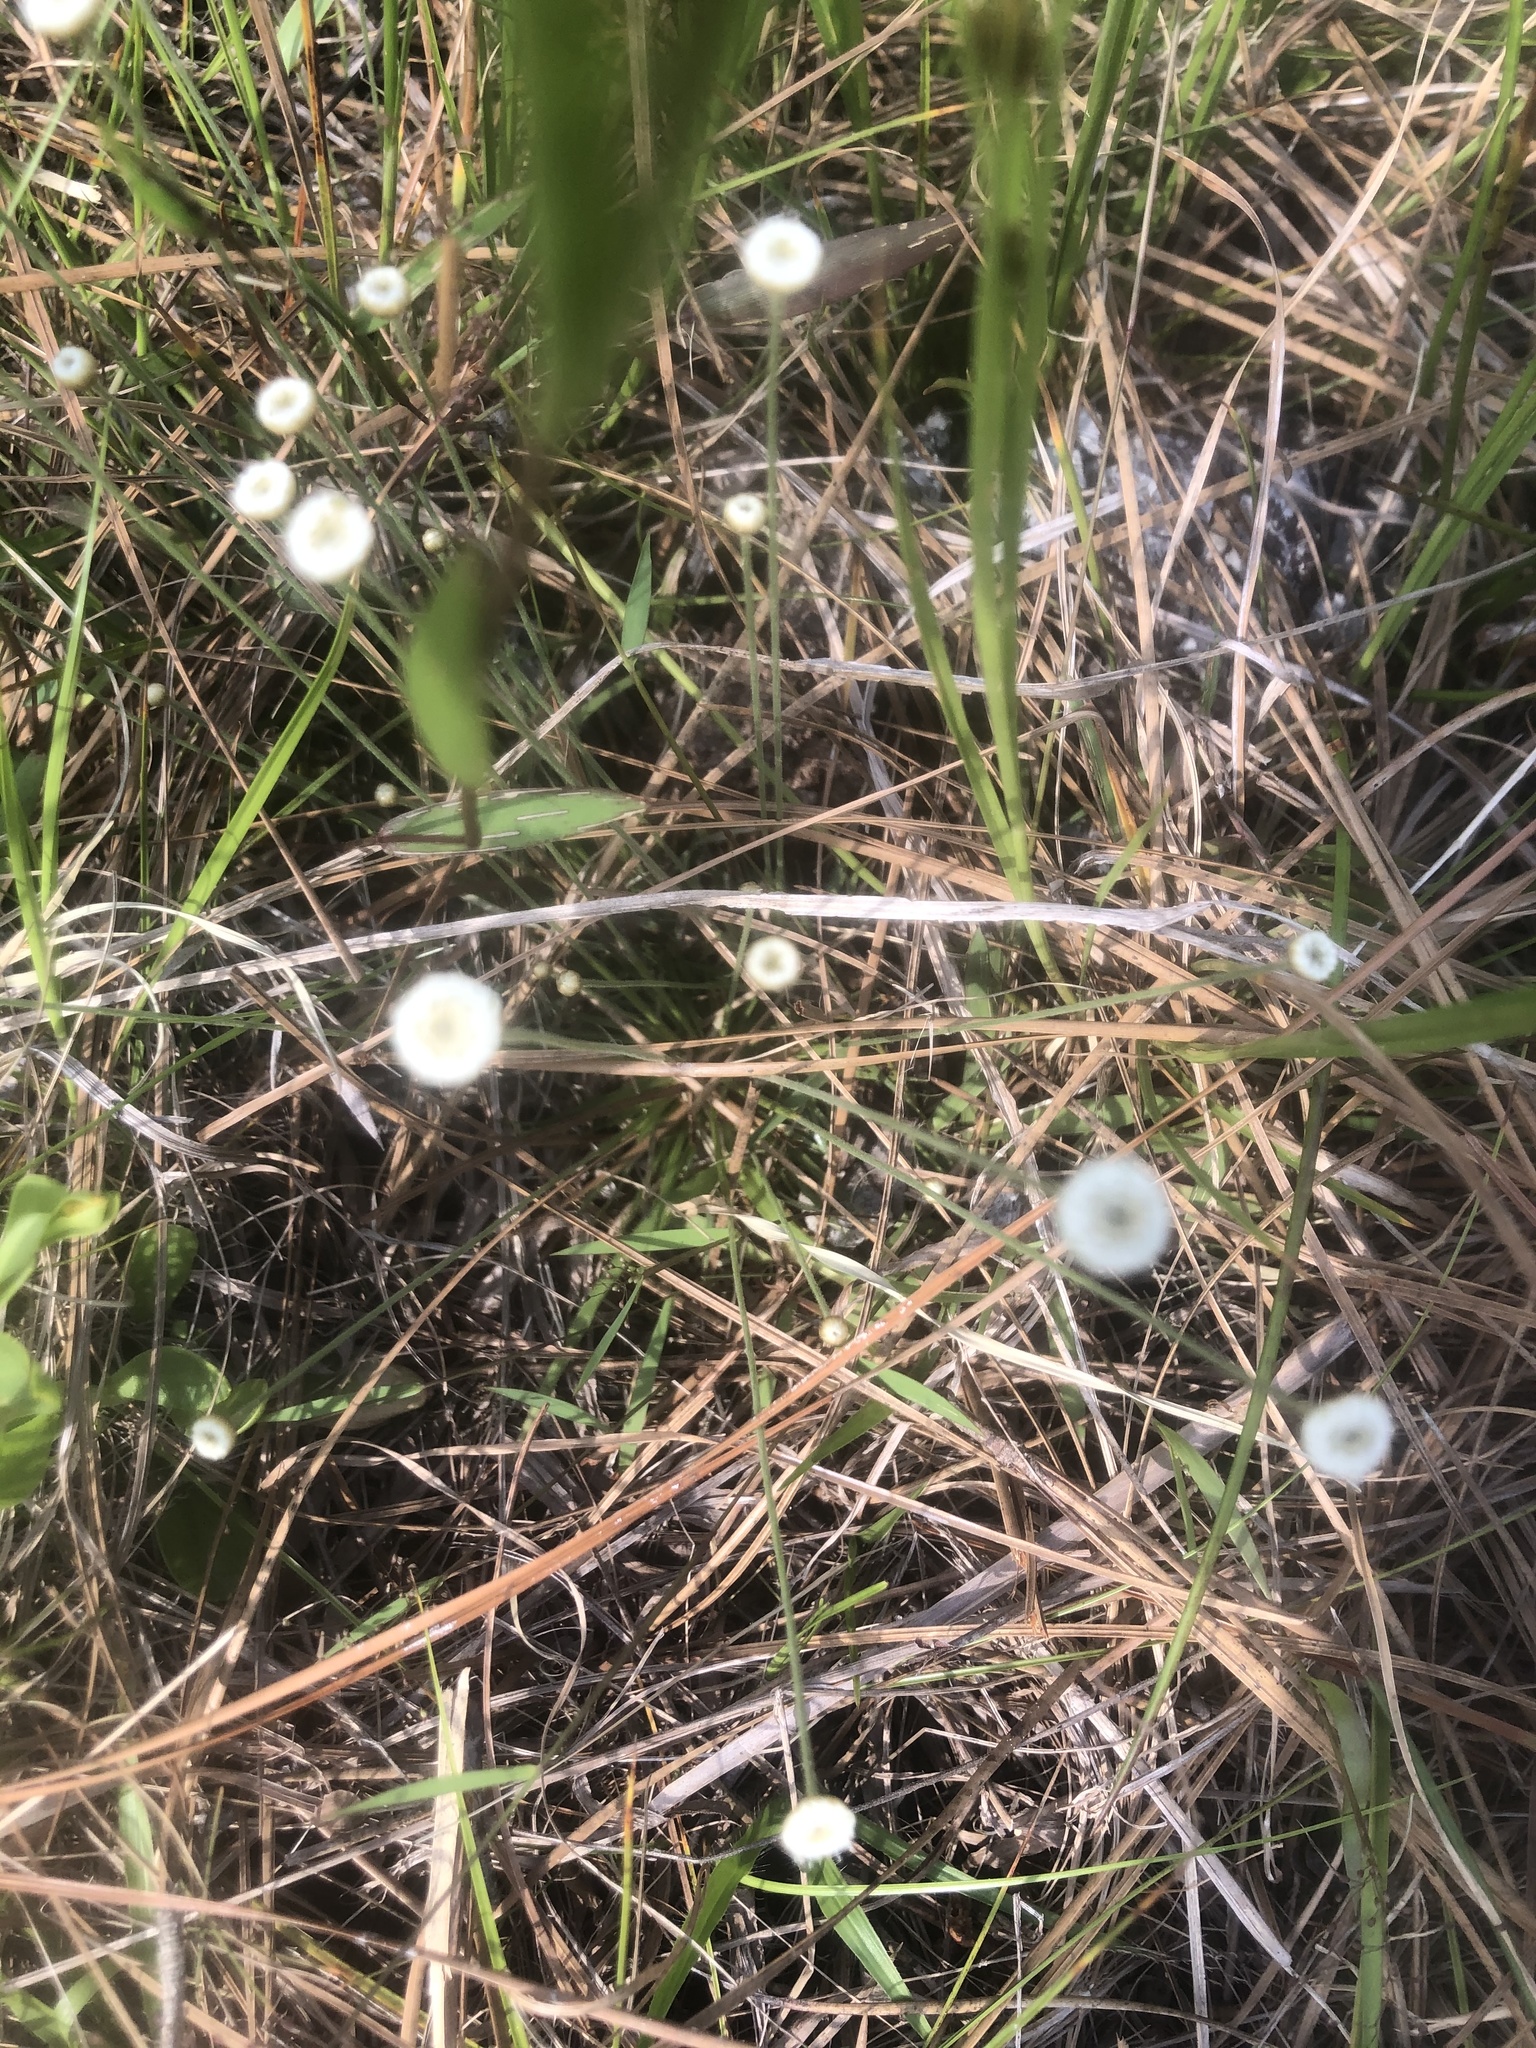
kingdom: Plantae
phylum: Tracheophyta
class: Liliopsida
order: Poales
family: Eriocaulaceae
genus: Syngonanthus
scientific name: Syngonanthus flavidulus
